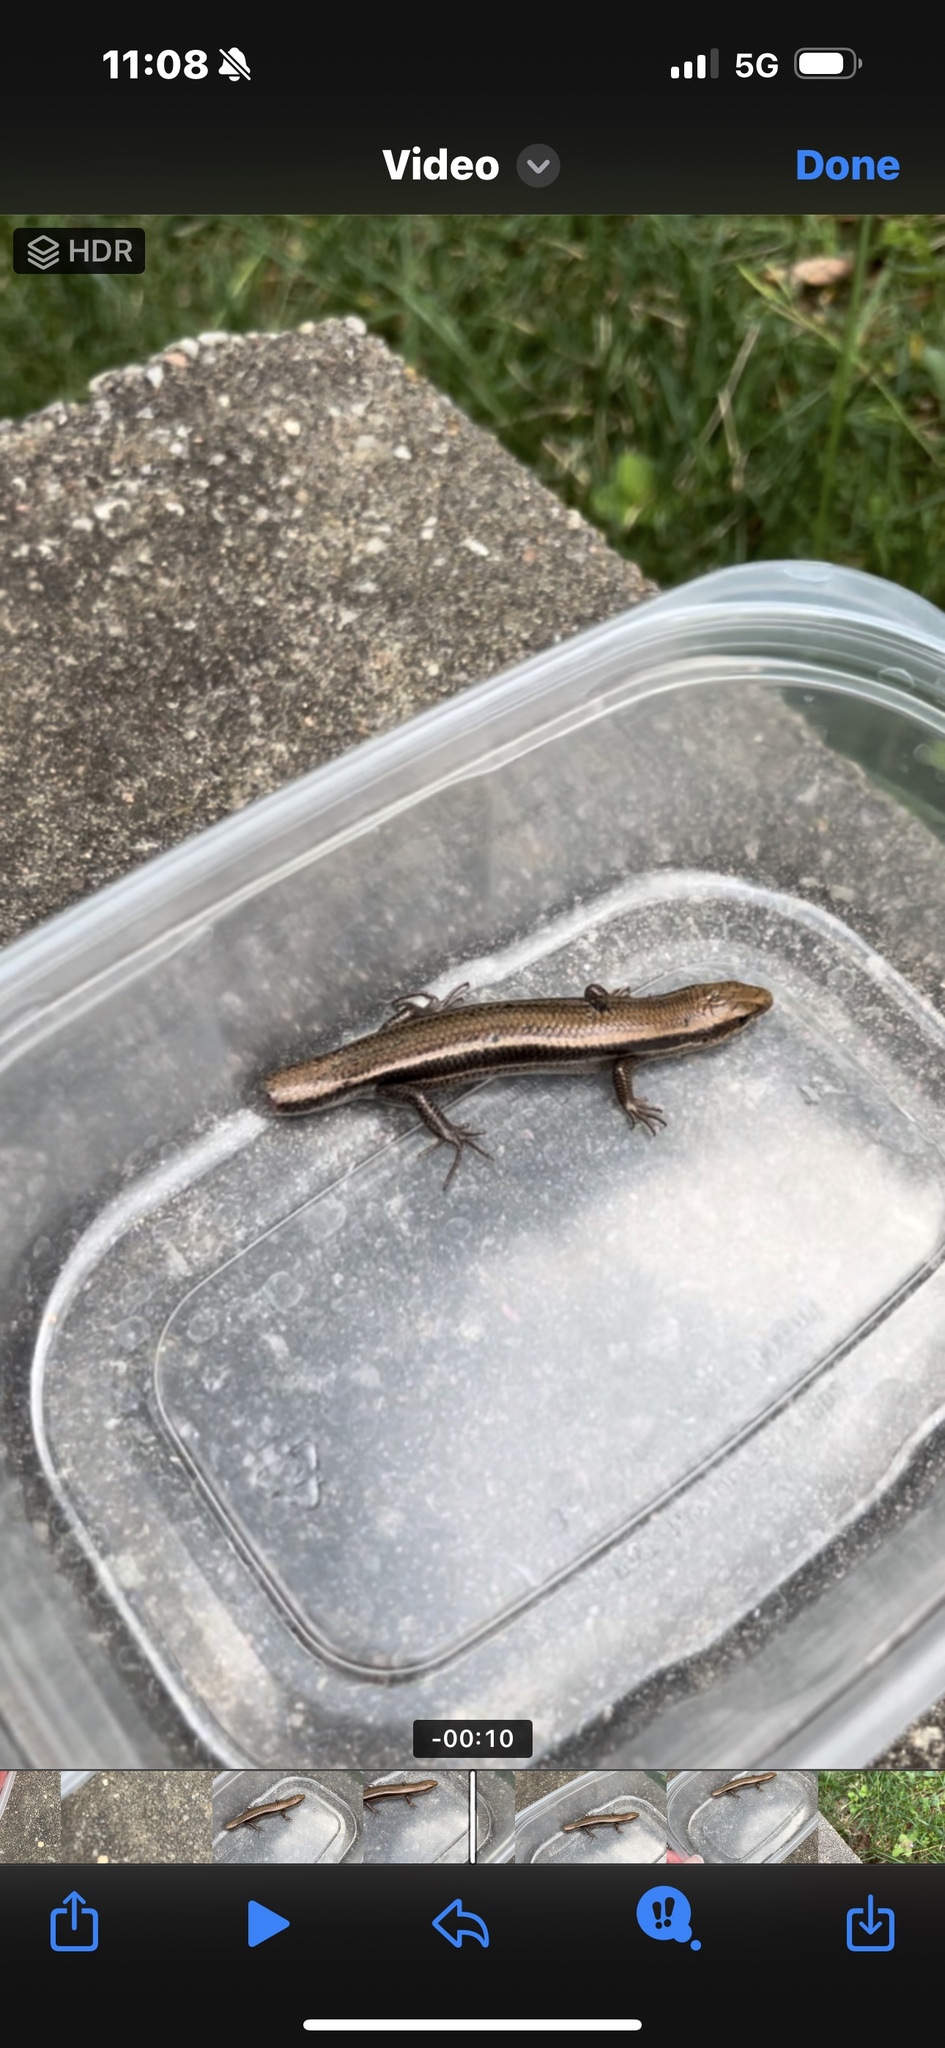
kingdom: Animalia
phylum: Chordata
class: Squamata
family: Scincidae
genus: Plestiodon
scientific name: Plestiodon fasciatus
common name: Five-lined skink
